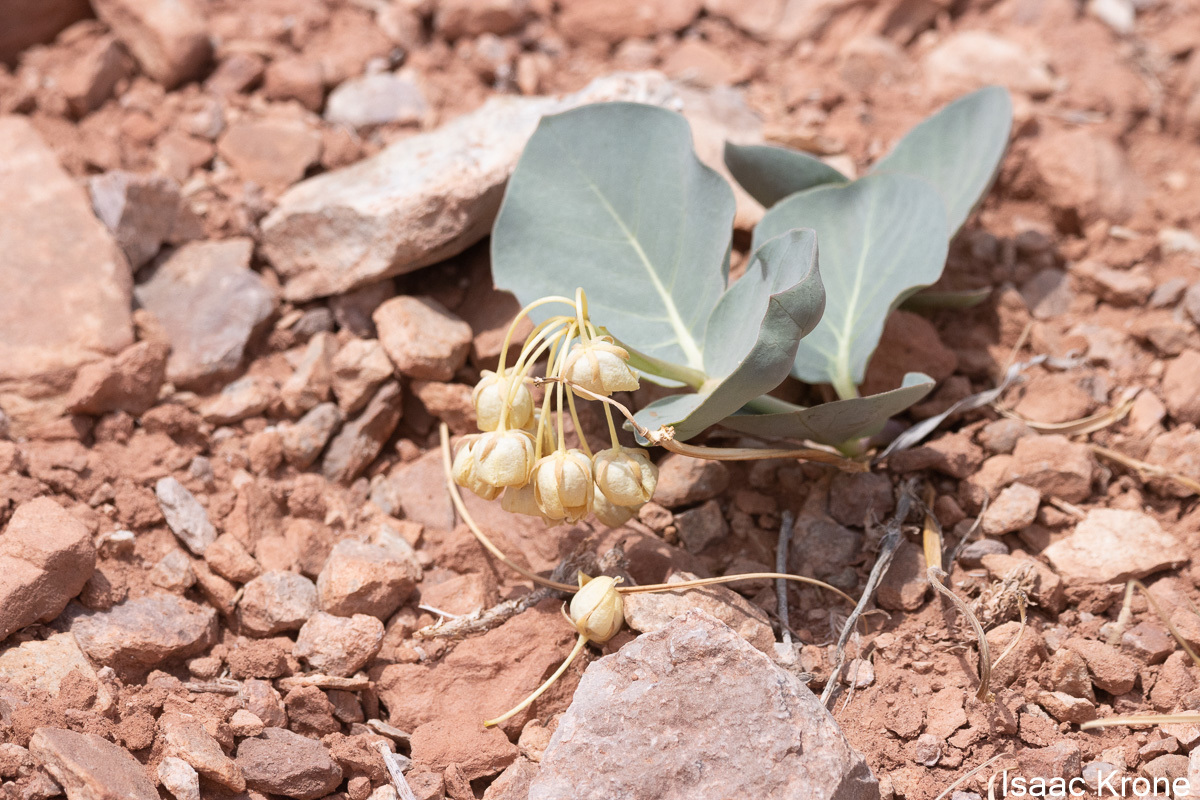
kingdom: Plantae
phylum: Tracheophyta
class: Magnoliopsida
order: Gentianales
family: Apocynaceae
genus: Asclepias
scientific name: Asclepias cryptoceras
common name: Humboldt mountains milkweed
